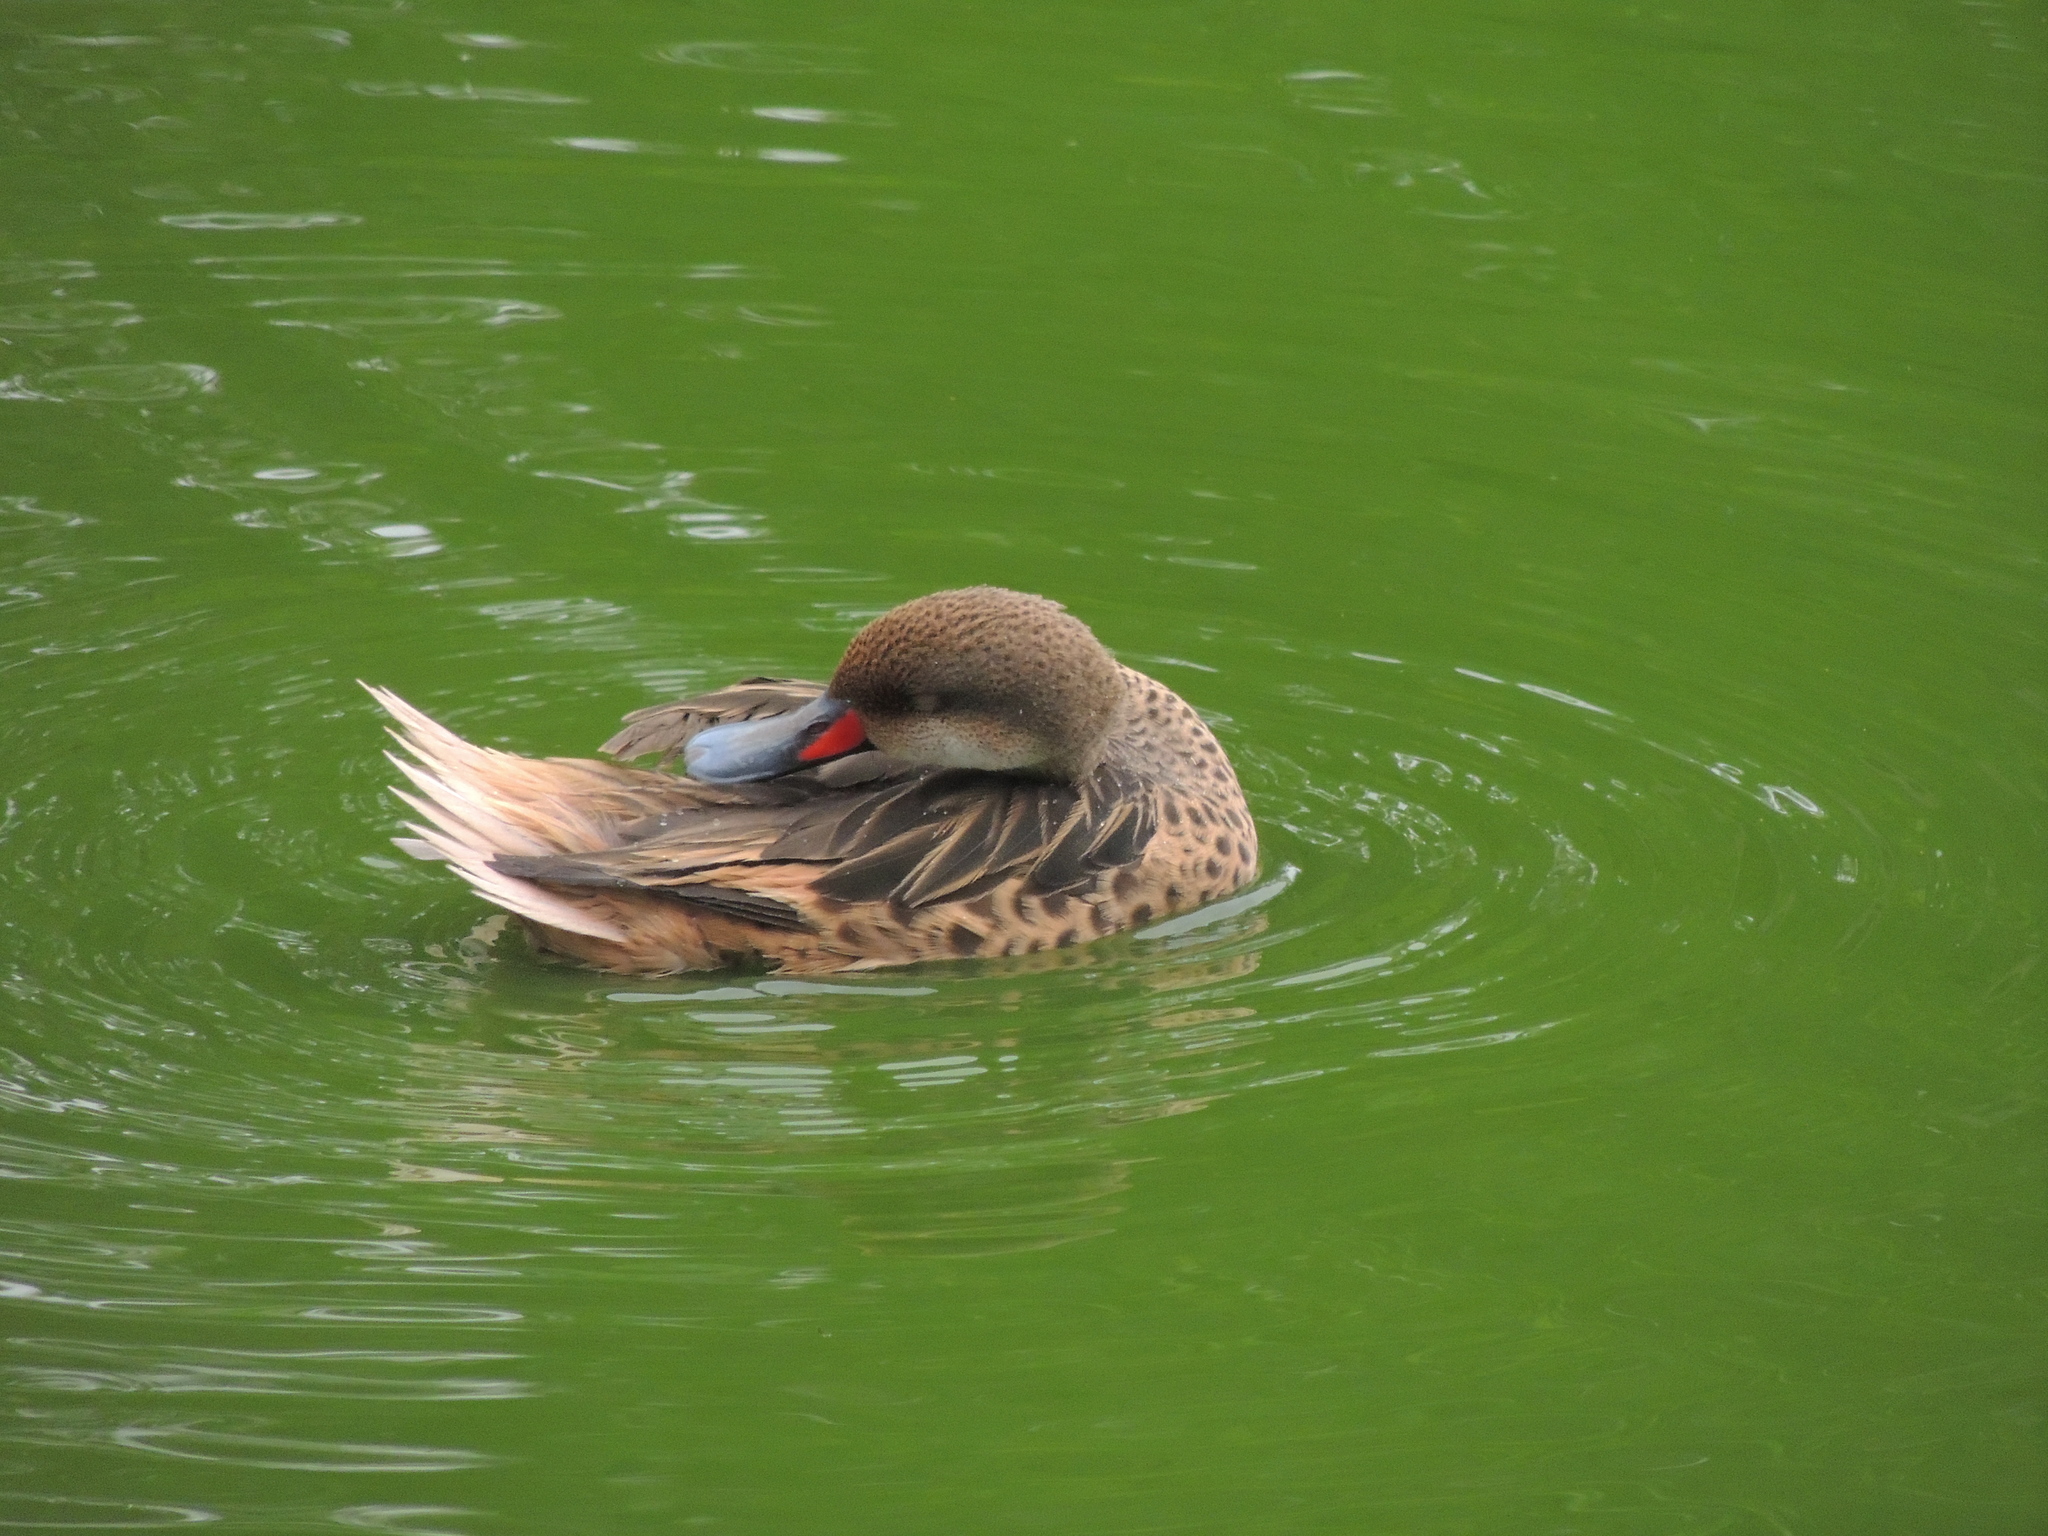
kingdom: Animalia
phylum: Chordata
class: Aves
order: Anseriformes
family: Anatidae
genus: Anas
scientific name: Anas bahamensis
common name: White-cheeked pintail
